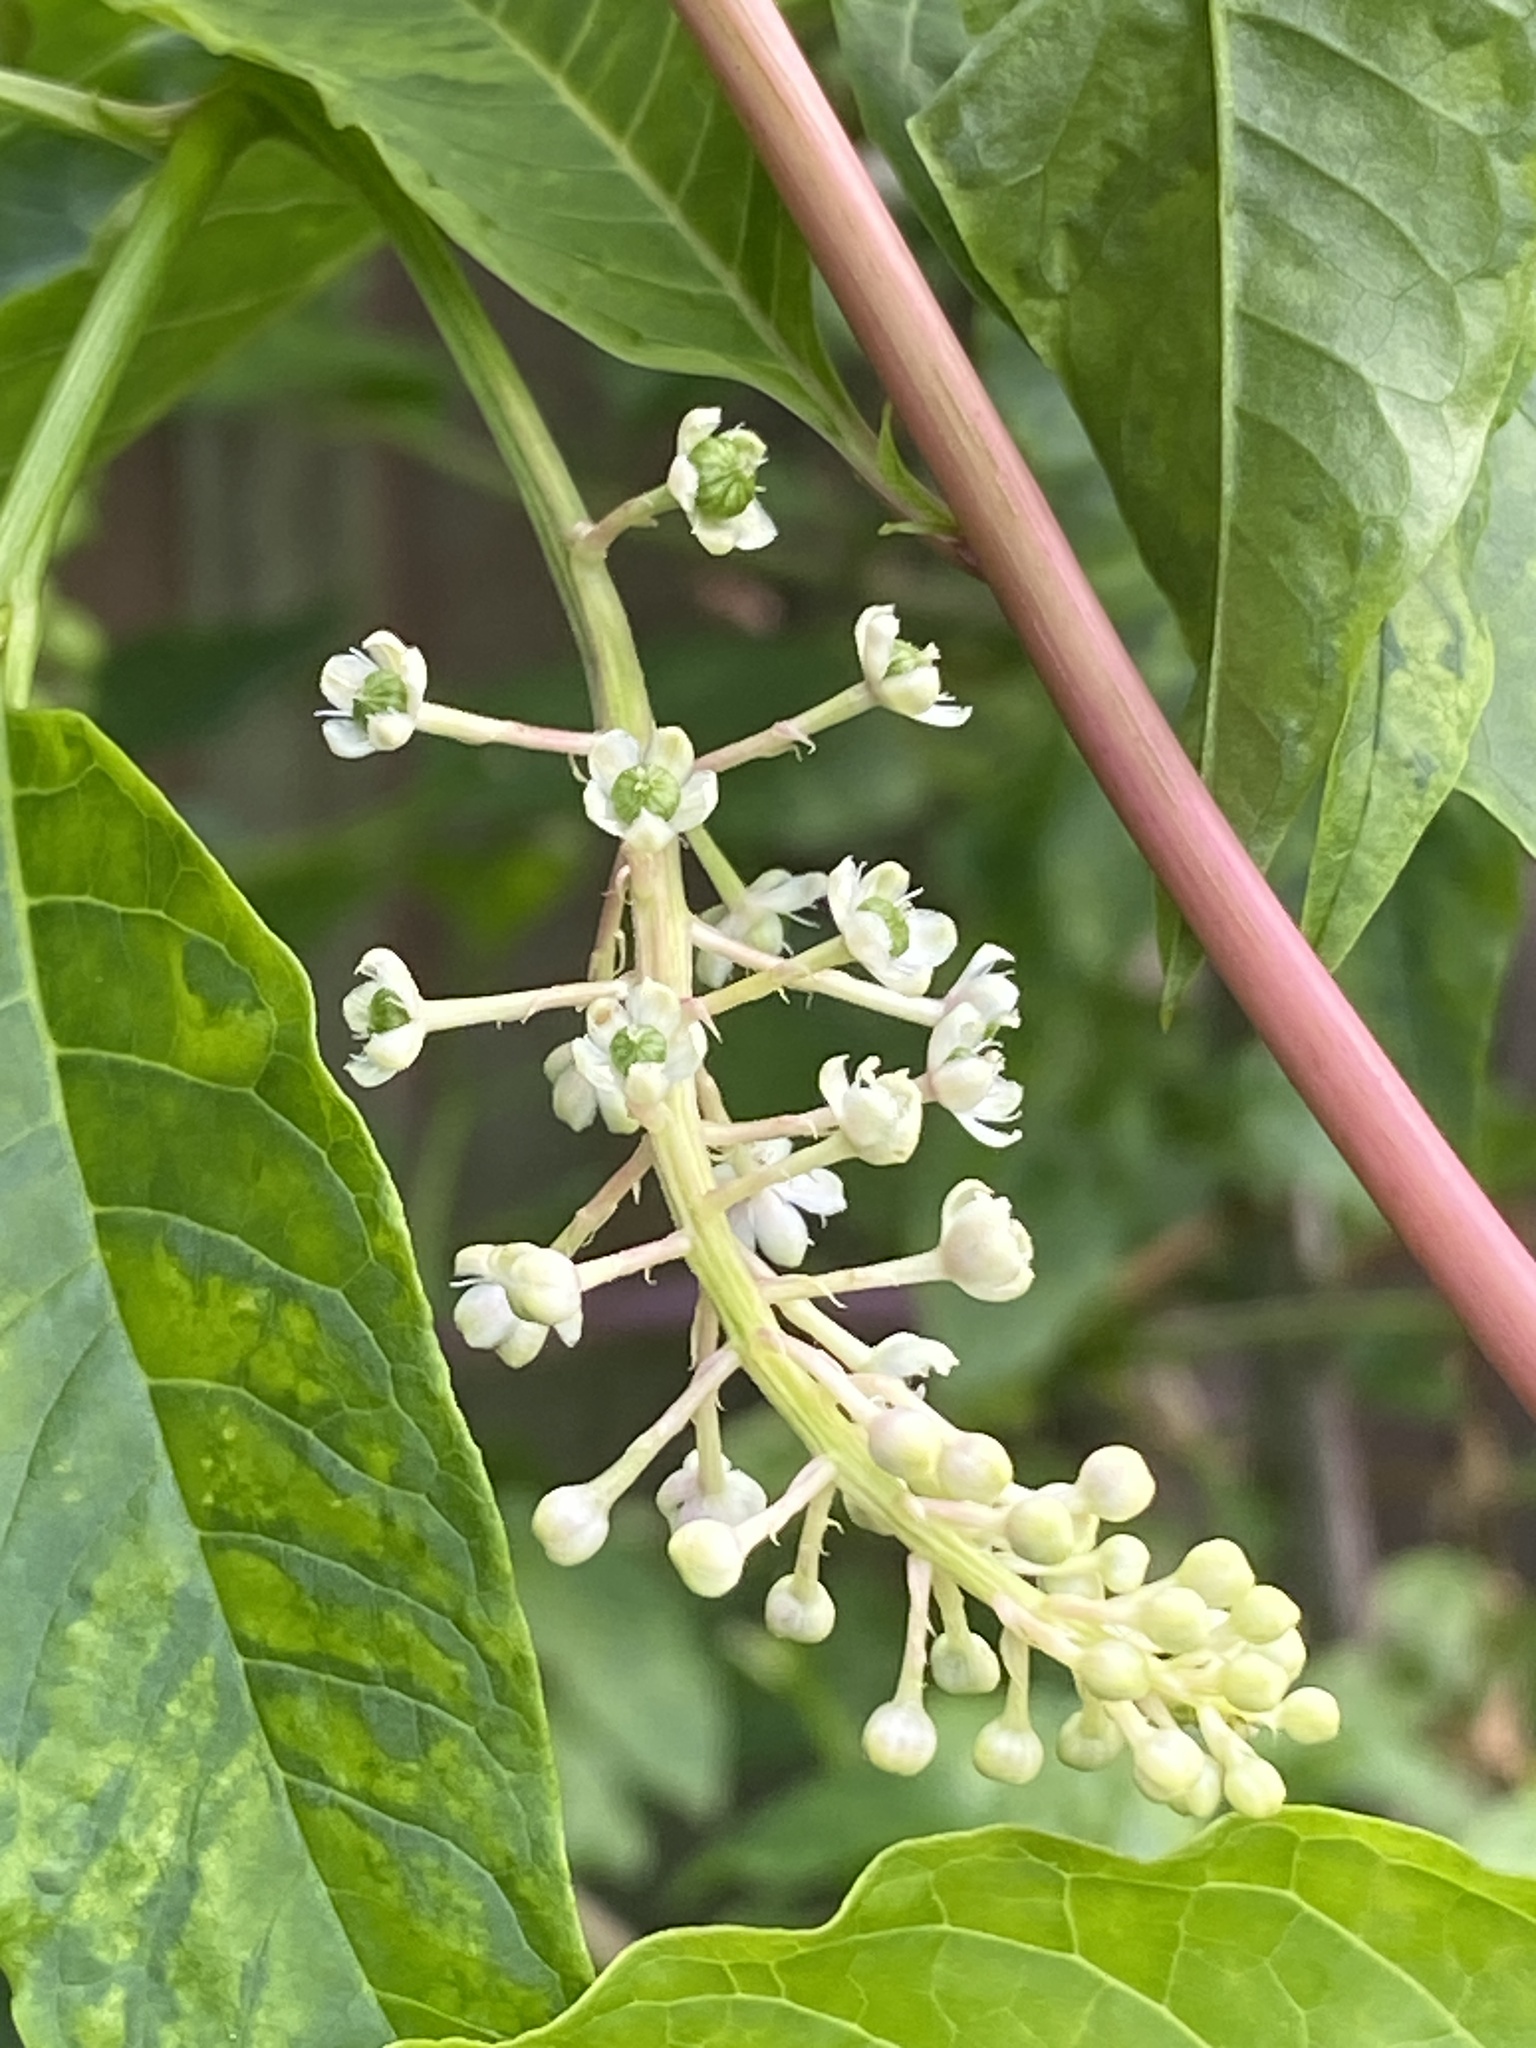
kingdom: Plantae
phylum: Tracheophyta
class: Magnoliopsida
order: Caryophyllales
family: Phytolaccaceae
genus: Phytolacca
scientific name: Phytolacca americana
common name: American pokeweed
